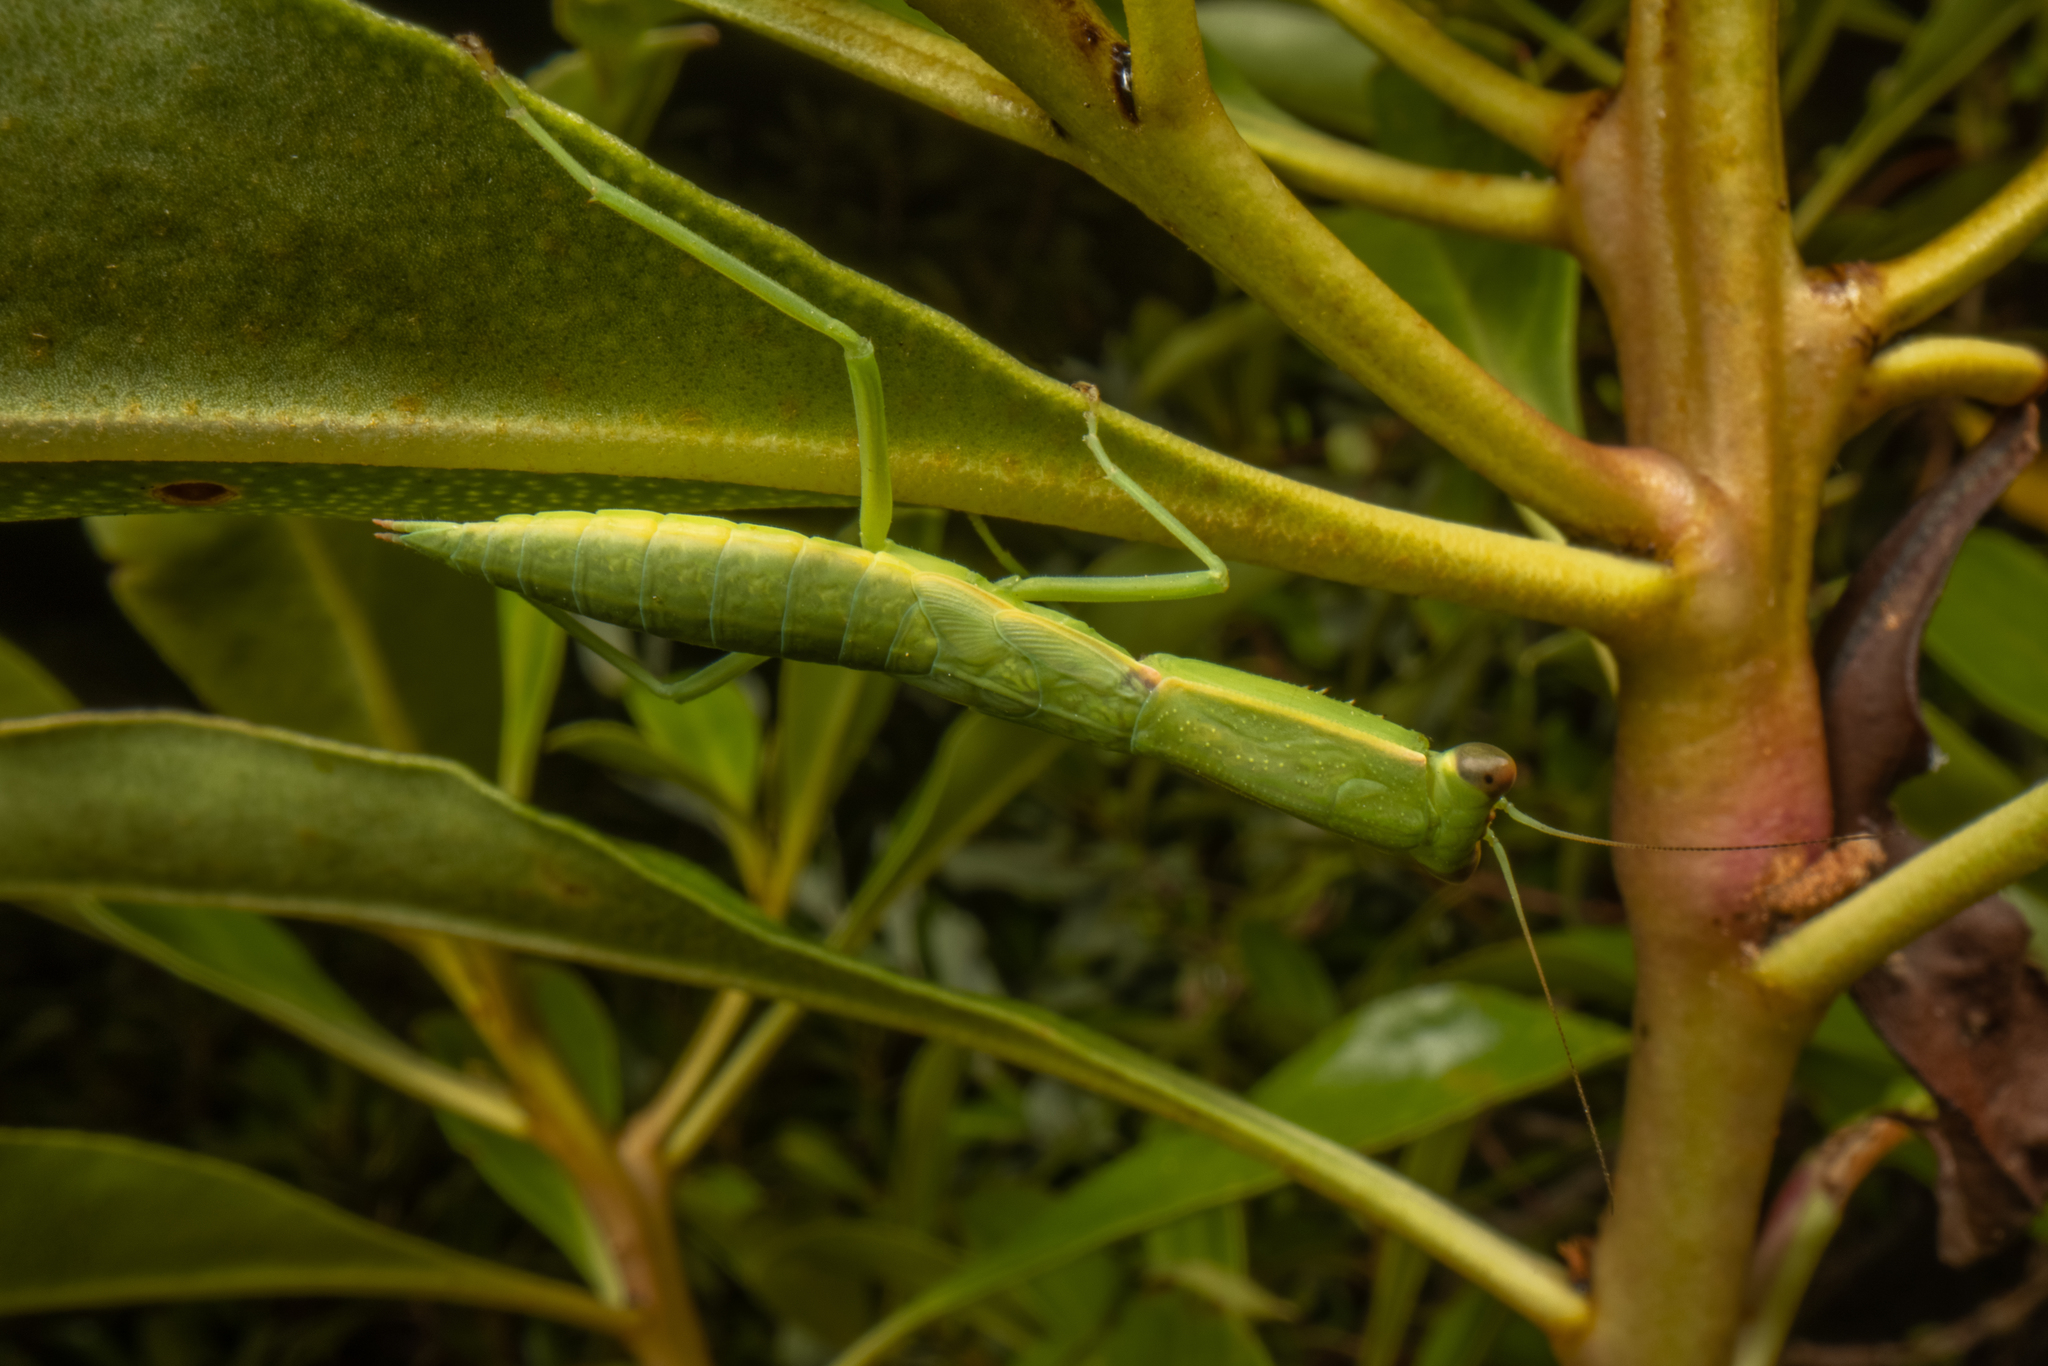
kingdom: Animalia
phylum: Arthropoda
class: Insecta
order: Mantodea
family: Mantidae
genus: Orthodera
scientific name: Orthodera novaezealandiae
